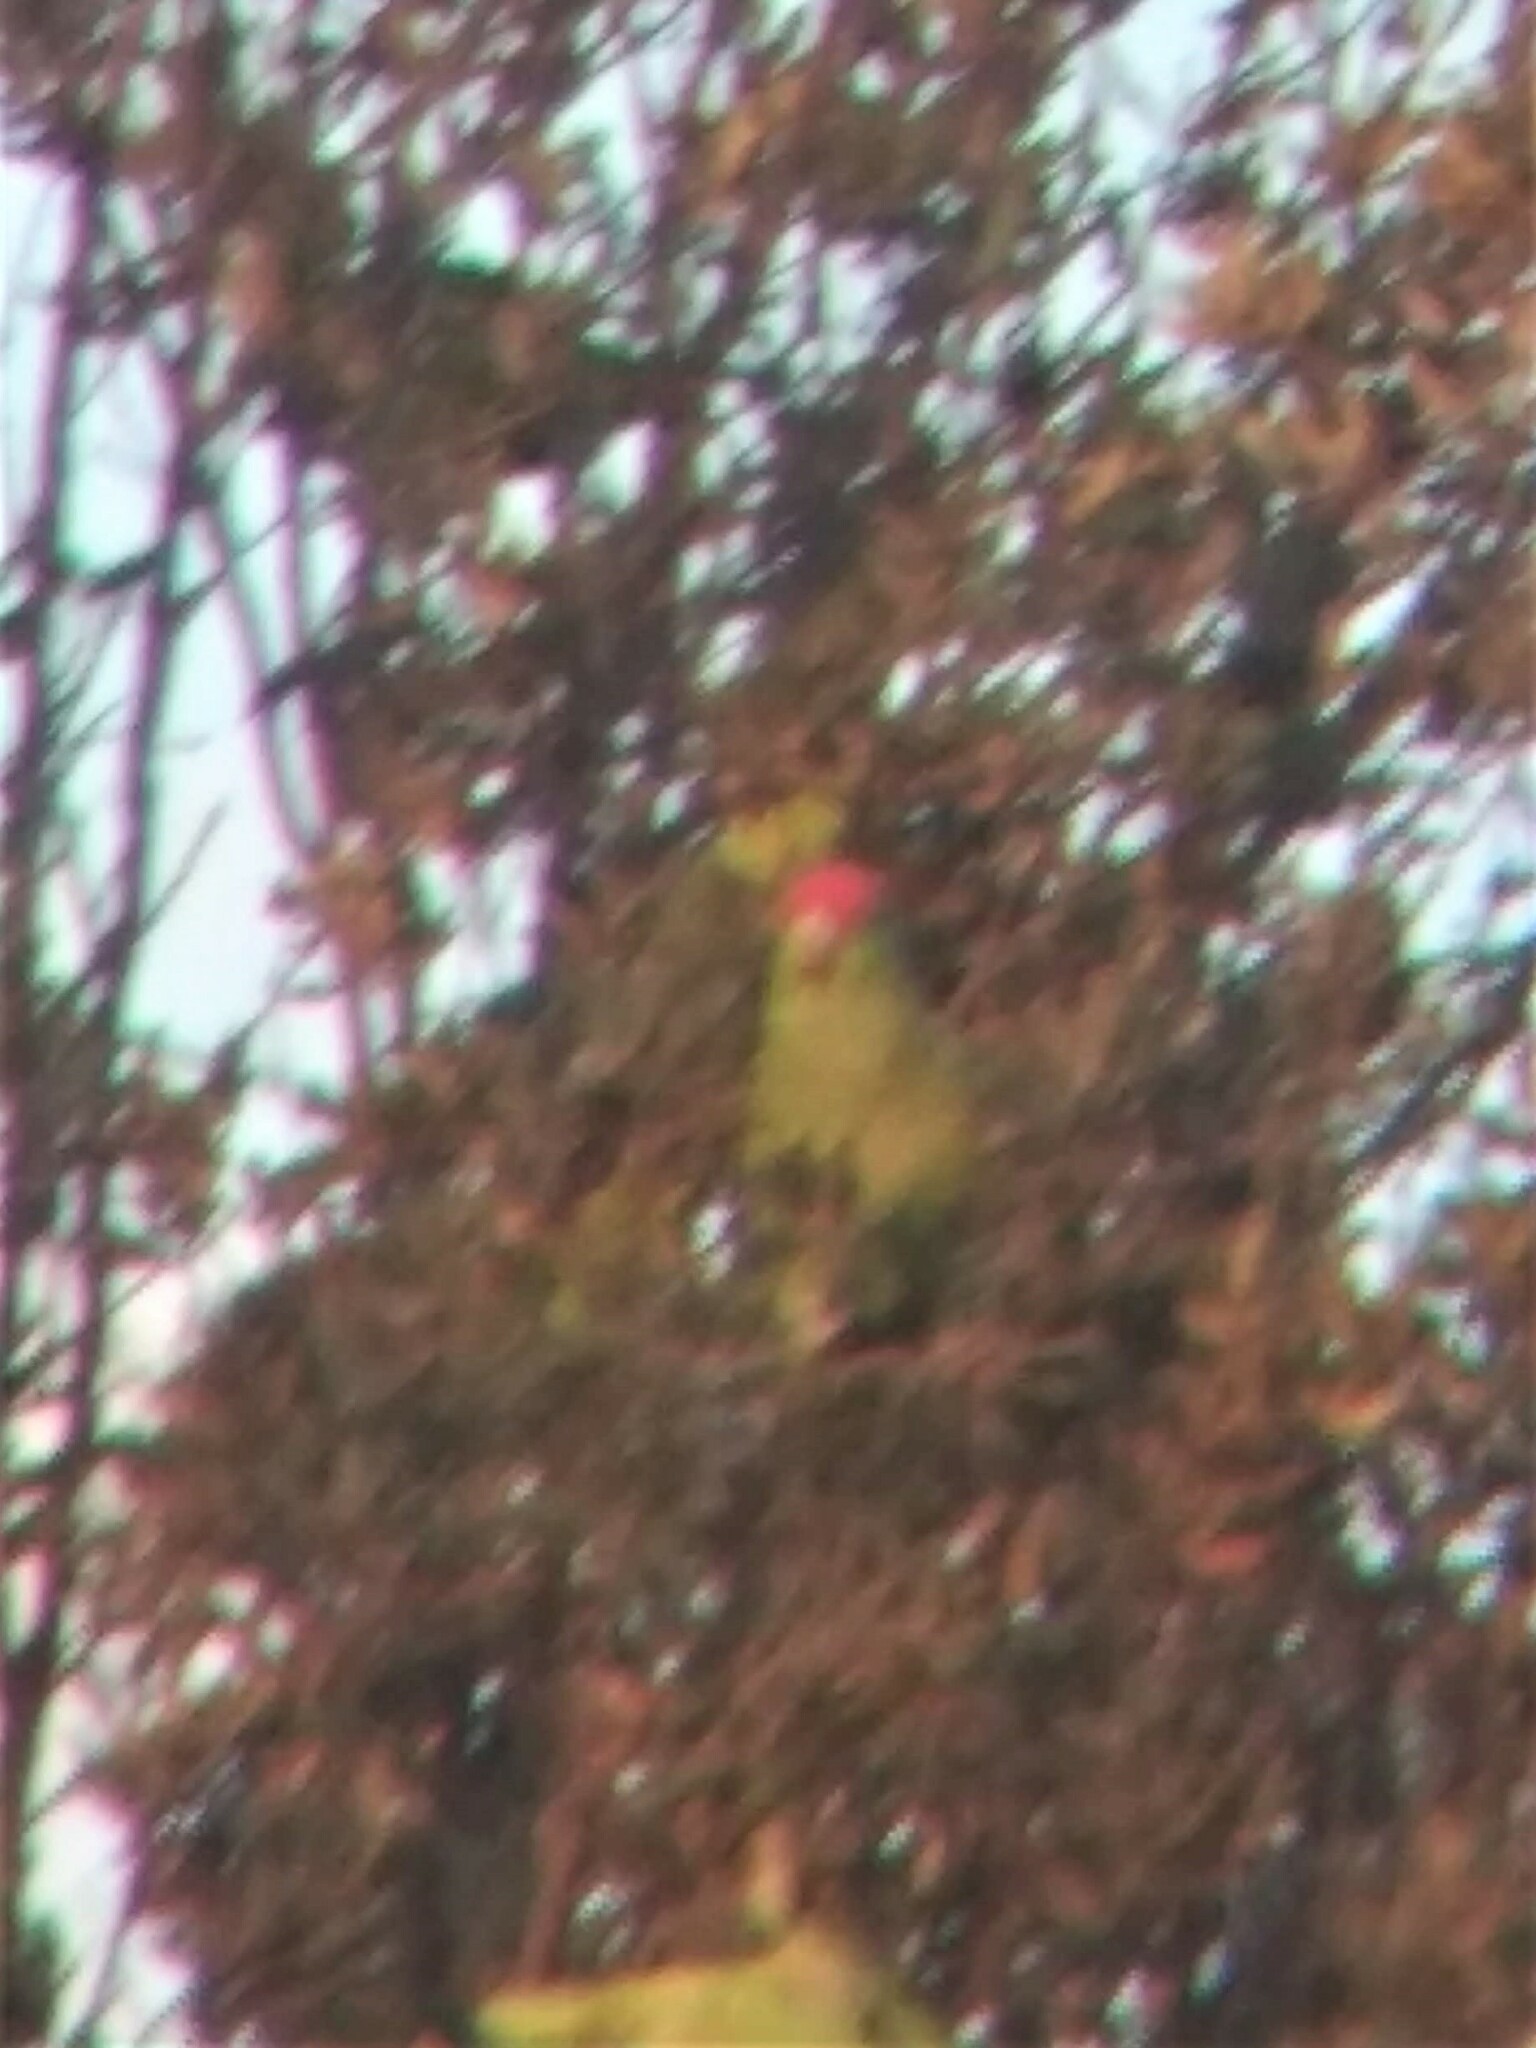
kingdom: Animalia
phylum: Chordata
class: Aves
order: Psittaciformes
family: Psittacidae
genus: Amazona
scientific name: Amazona viridigenalis
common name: Red-crowned amazon
